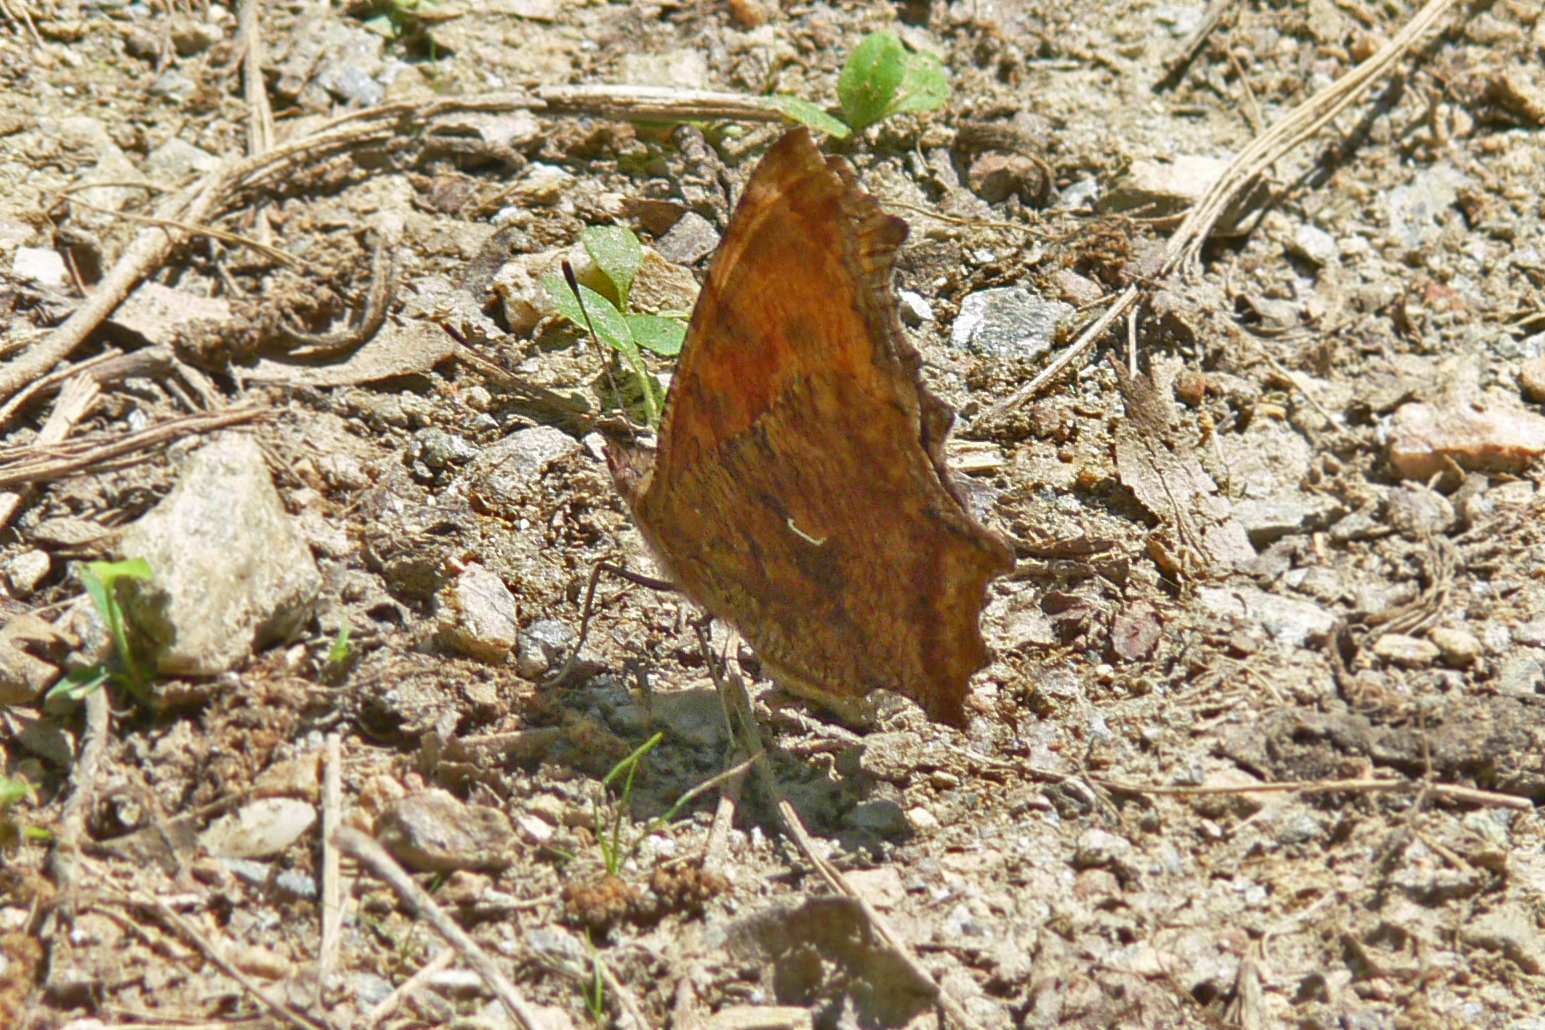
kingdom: Animalia
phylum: Arthropoda
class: Insecta
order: Lepidoptera
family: Nymphalidae
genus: Polygonia
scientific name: Polygonia comma
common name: Eastern comma
